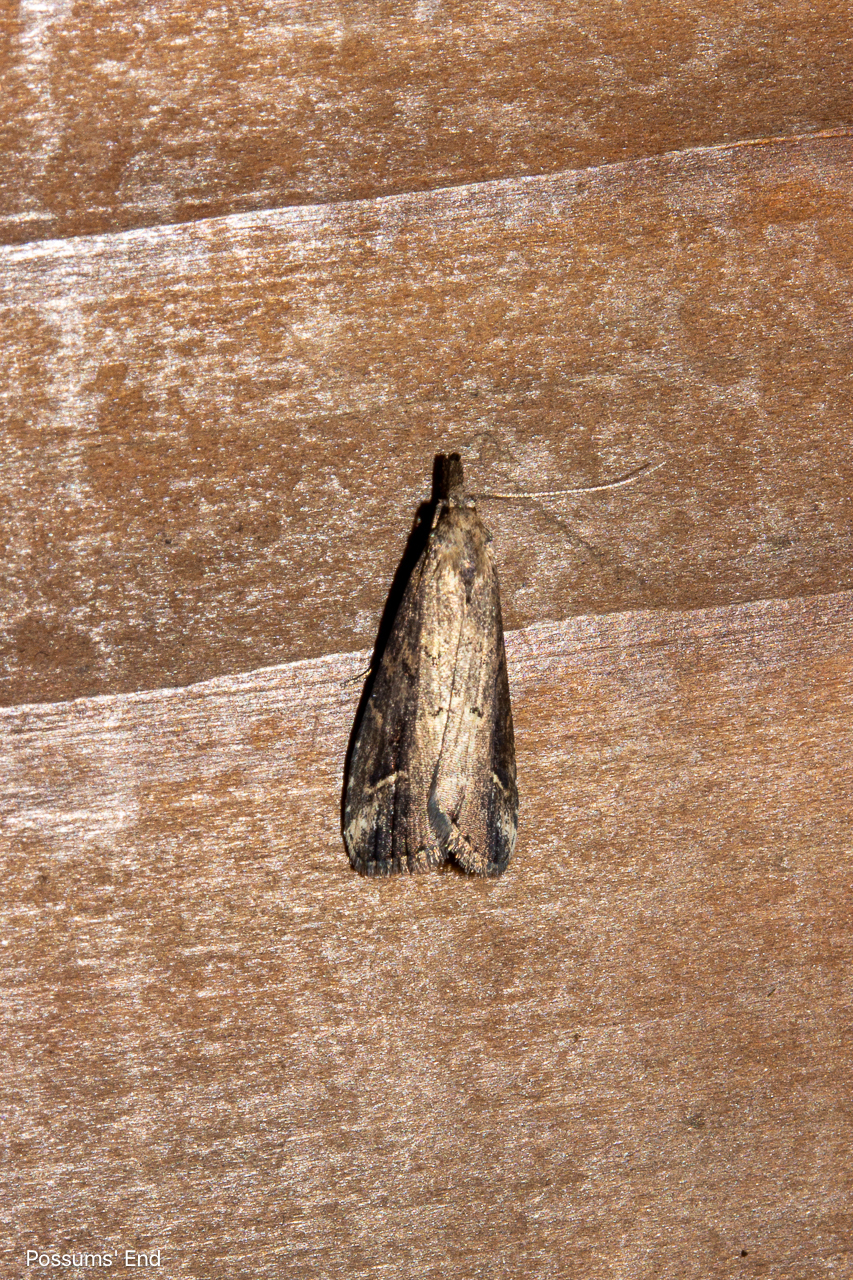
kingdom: Animalia
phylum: Arthropoda
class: Insecta
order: Lepidoptera
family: Erebidae
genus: Schrankia
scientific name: Schrankia costaestrigalis
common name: Pinion-streaked snout
